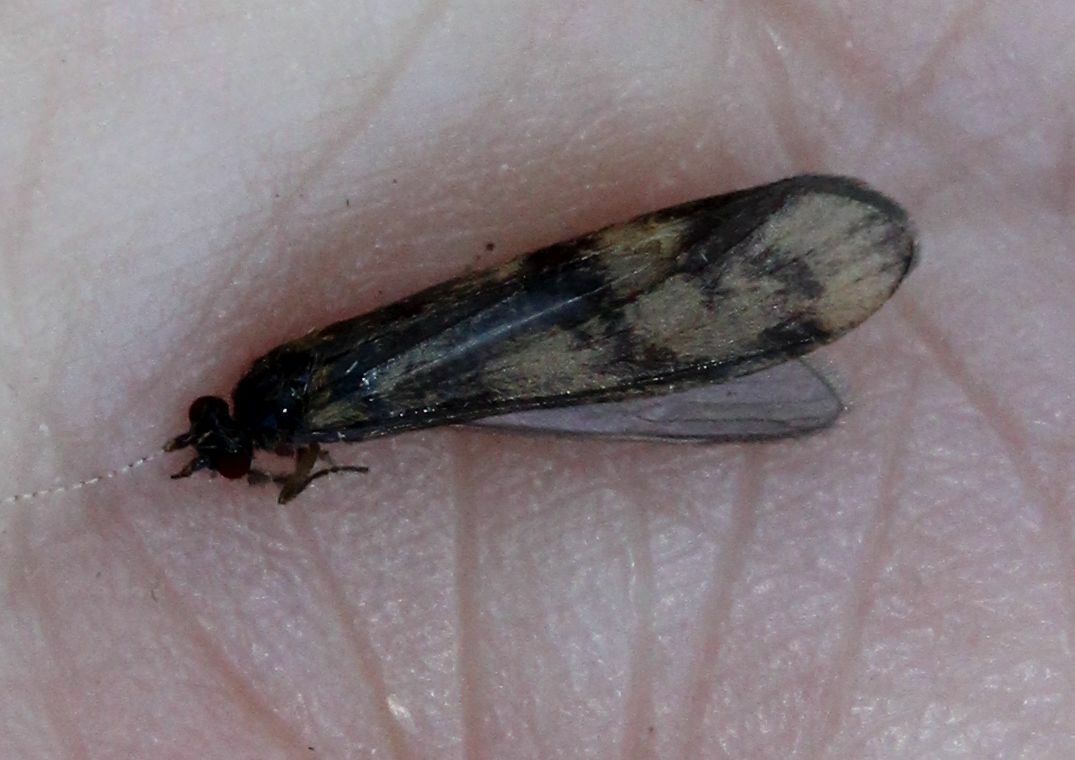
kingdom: Animalia
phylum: Arthropoda
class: Insecta
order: Trichoptera
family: Leptoceridae
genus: Mystacides
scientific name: Mystacides longicornis
